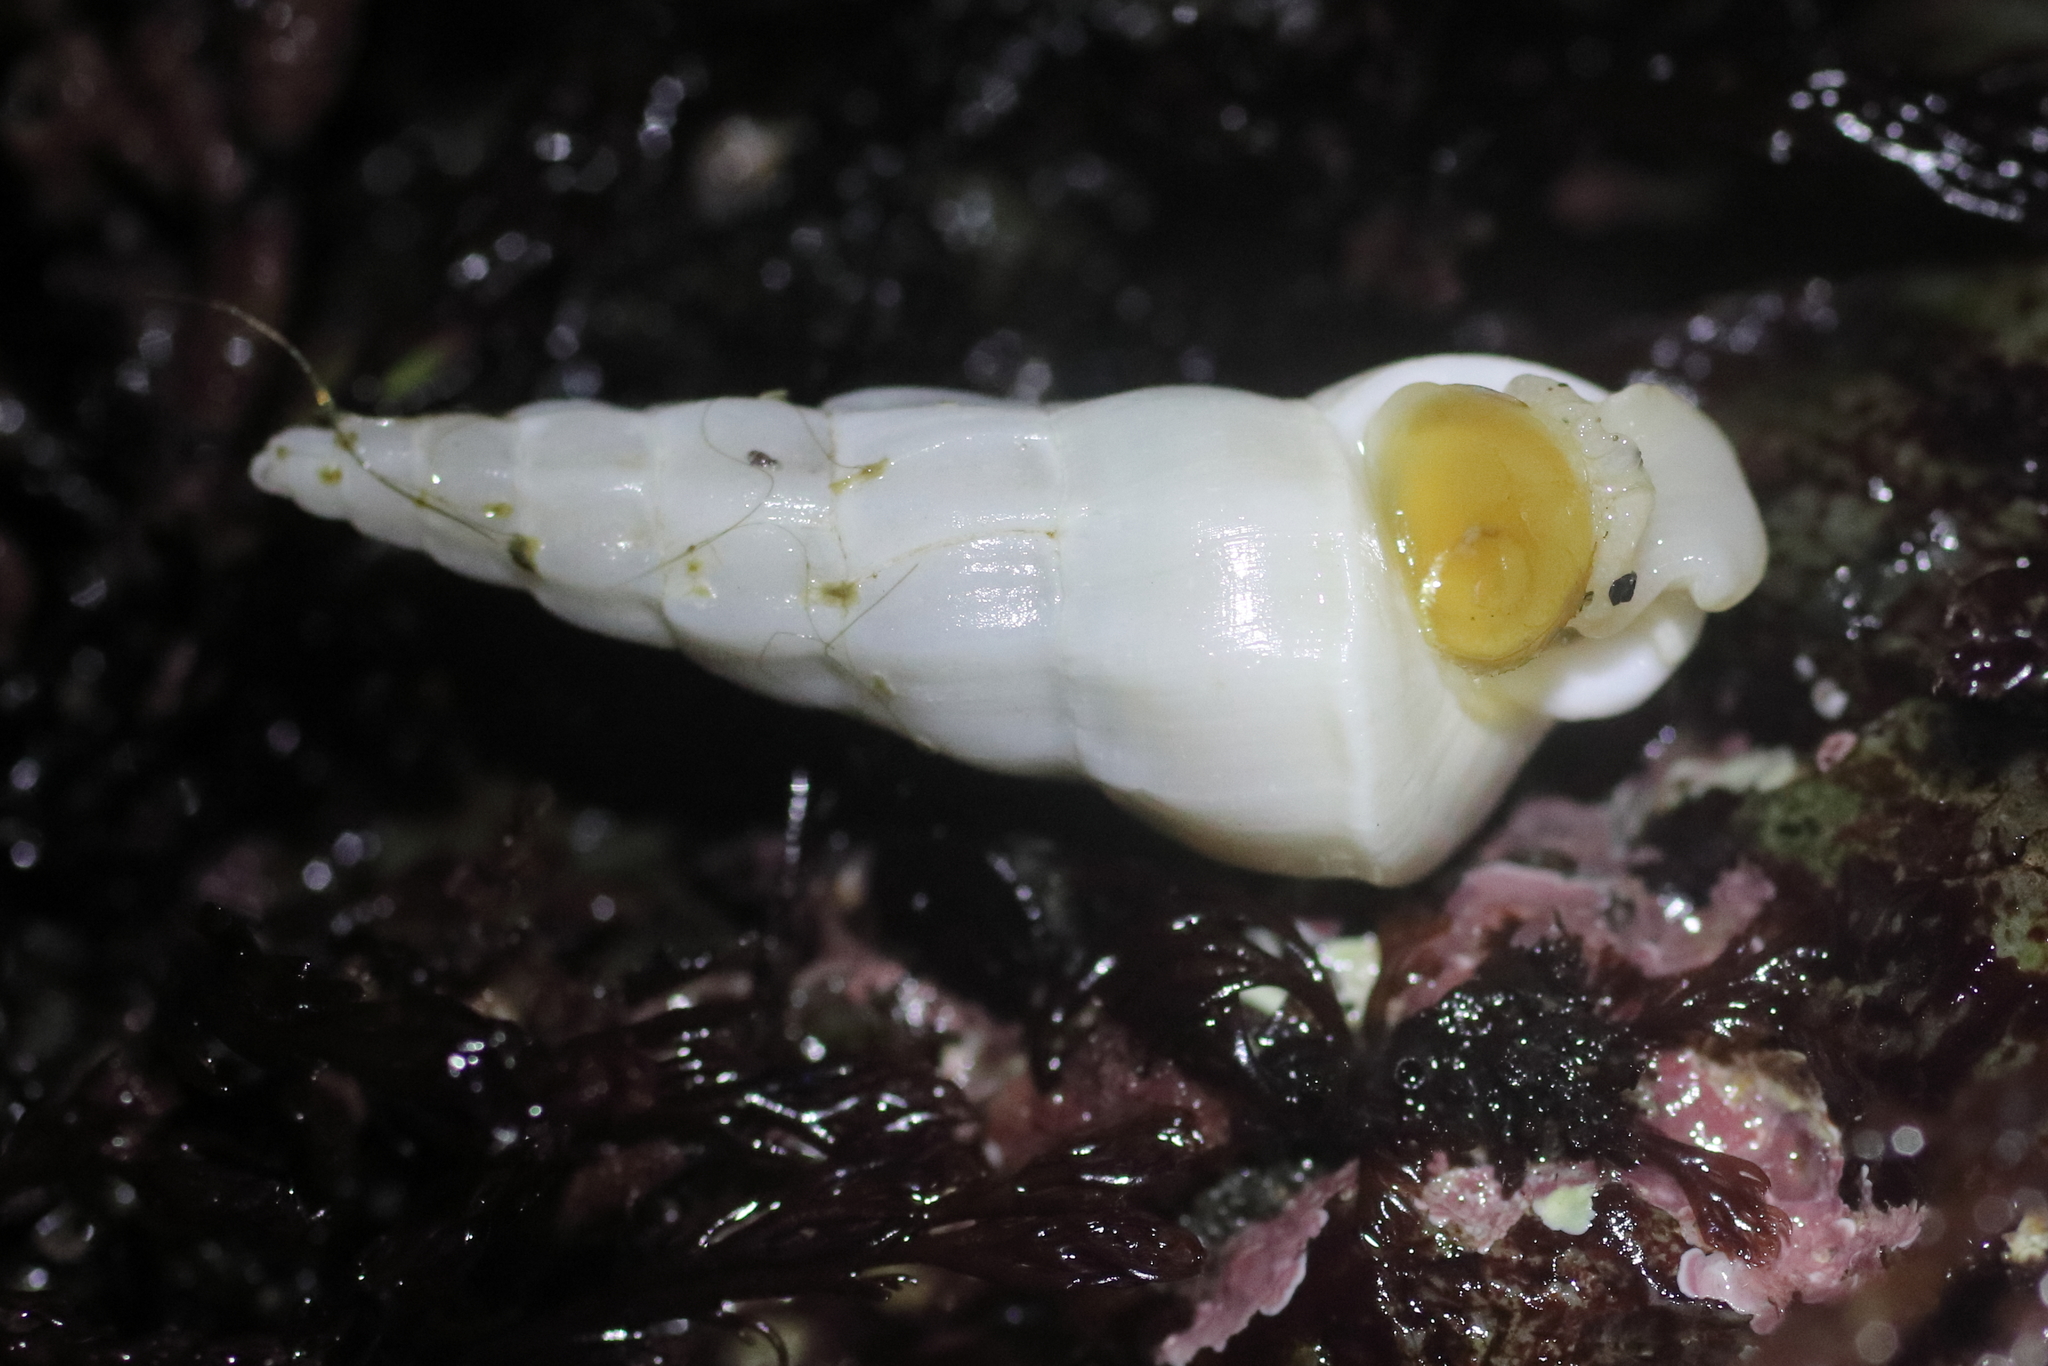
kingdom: Animalia
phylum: Mollusca
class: Gastropoda
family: Epitoniidae
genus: Opalia
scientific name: Opalia wroblewskyi
